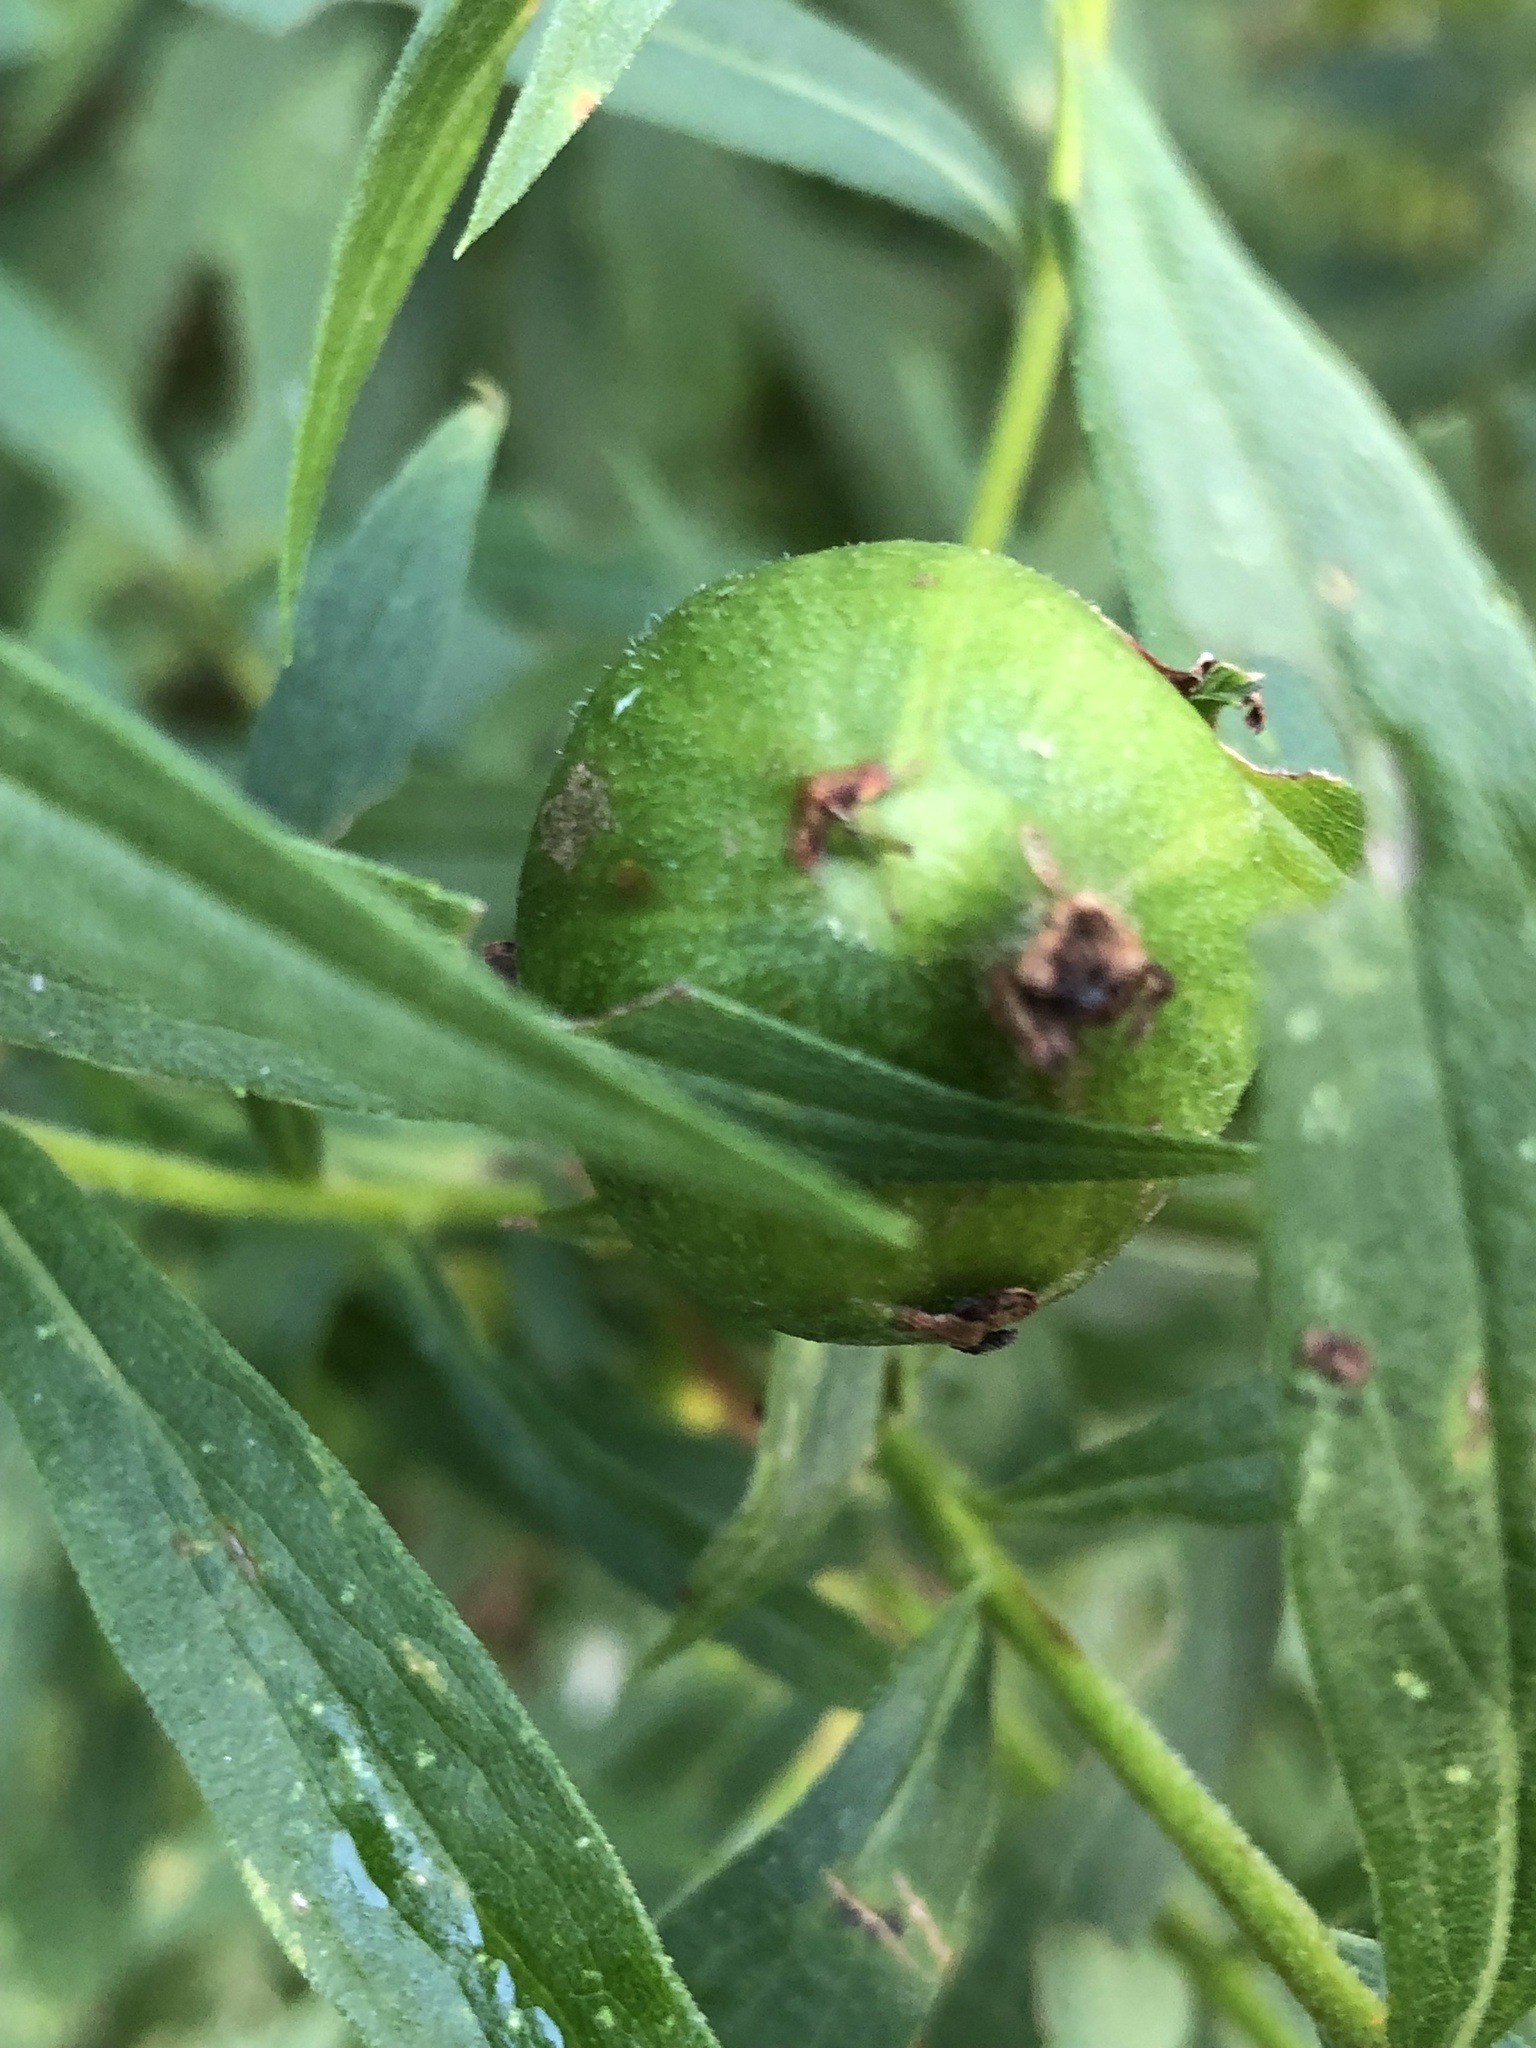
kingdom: Animalia
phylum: Arthropoda
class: Insecta
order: Diptera
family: Tephritidae
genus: Eurosta
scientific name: Eurosta solidaginis
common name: Goldenrod gall fly
